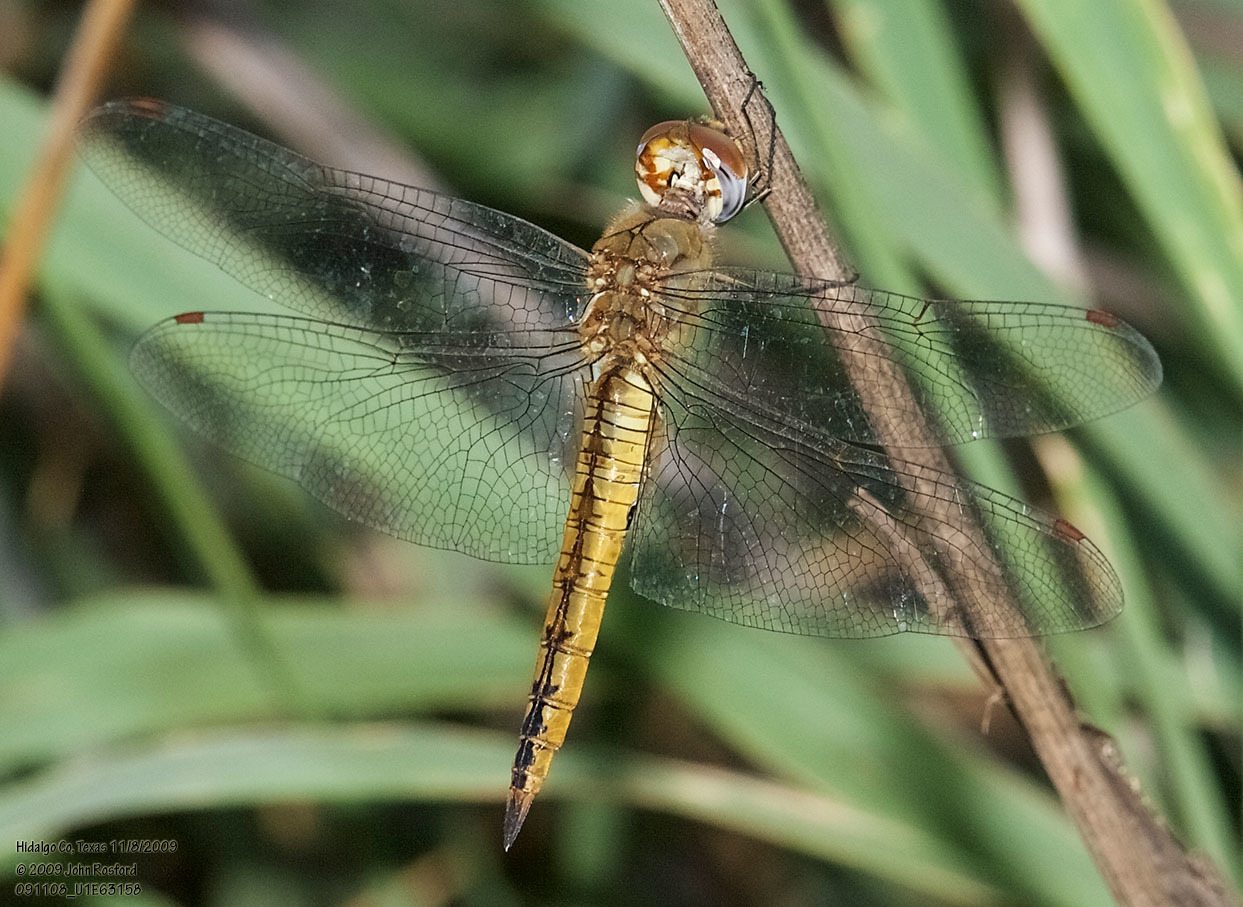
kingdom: Animalia
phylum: Arthropoda
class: Insecta
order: Odonata
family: Libellulidae
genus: Pantala
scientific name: Pantala flavescens
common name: Wandering glider
